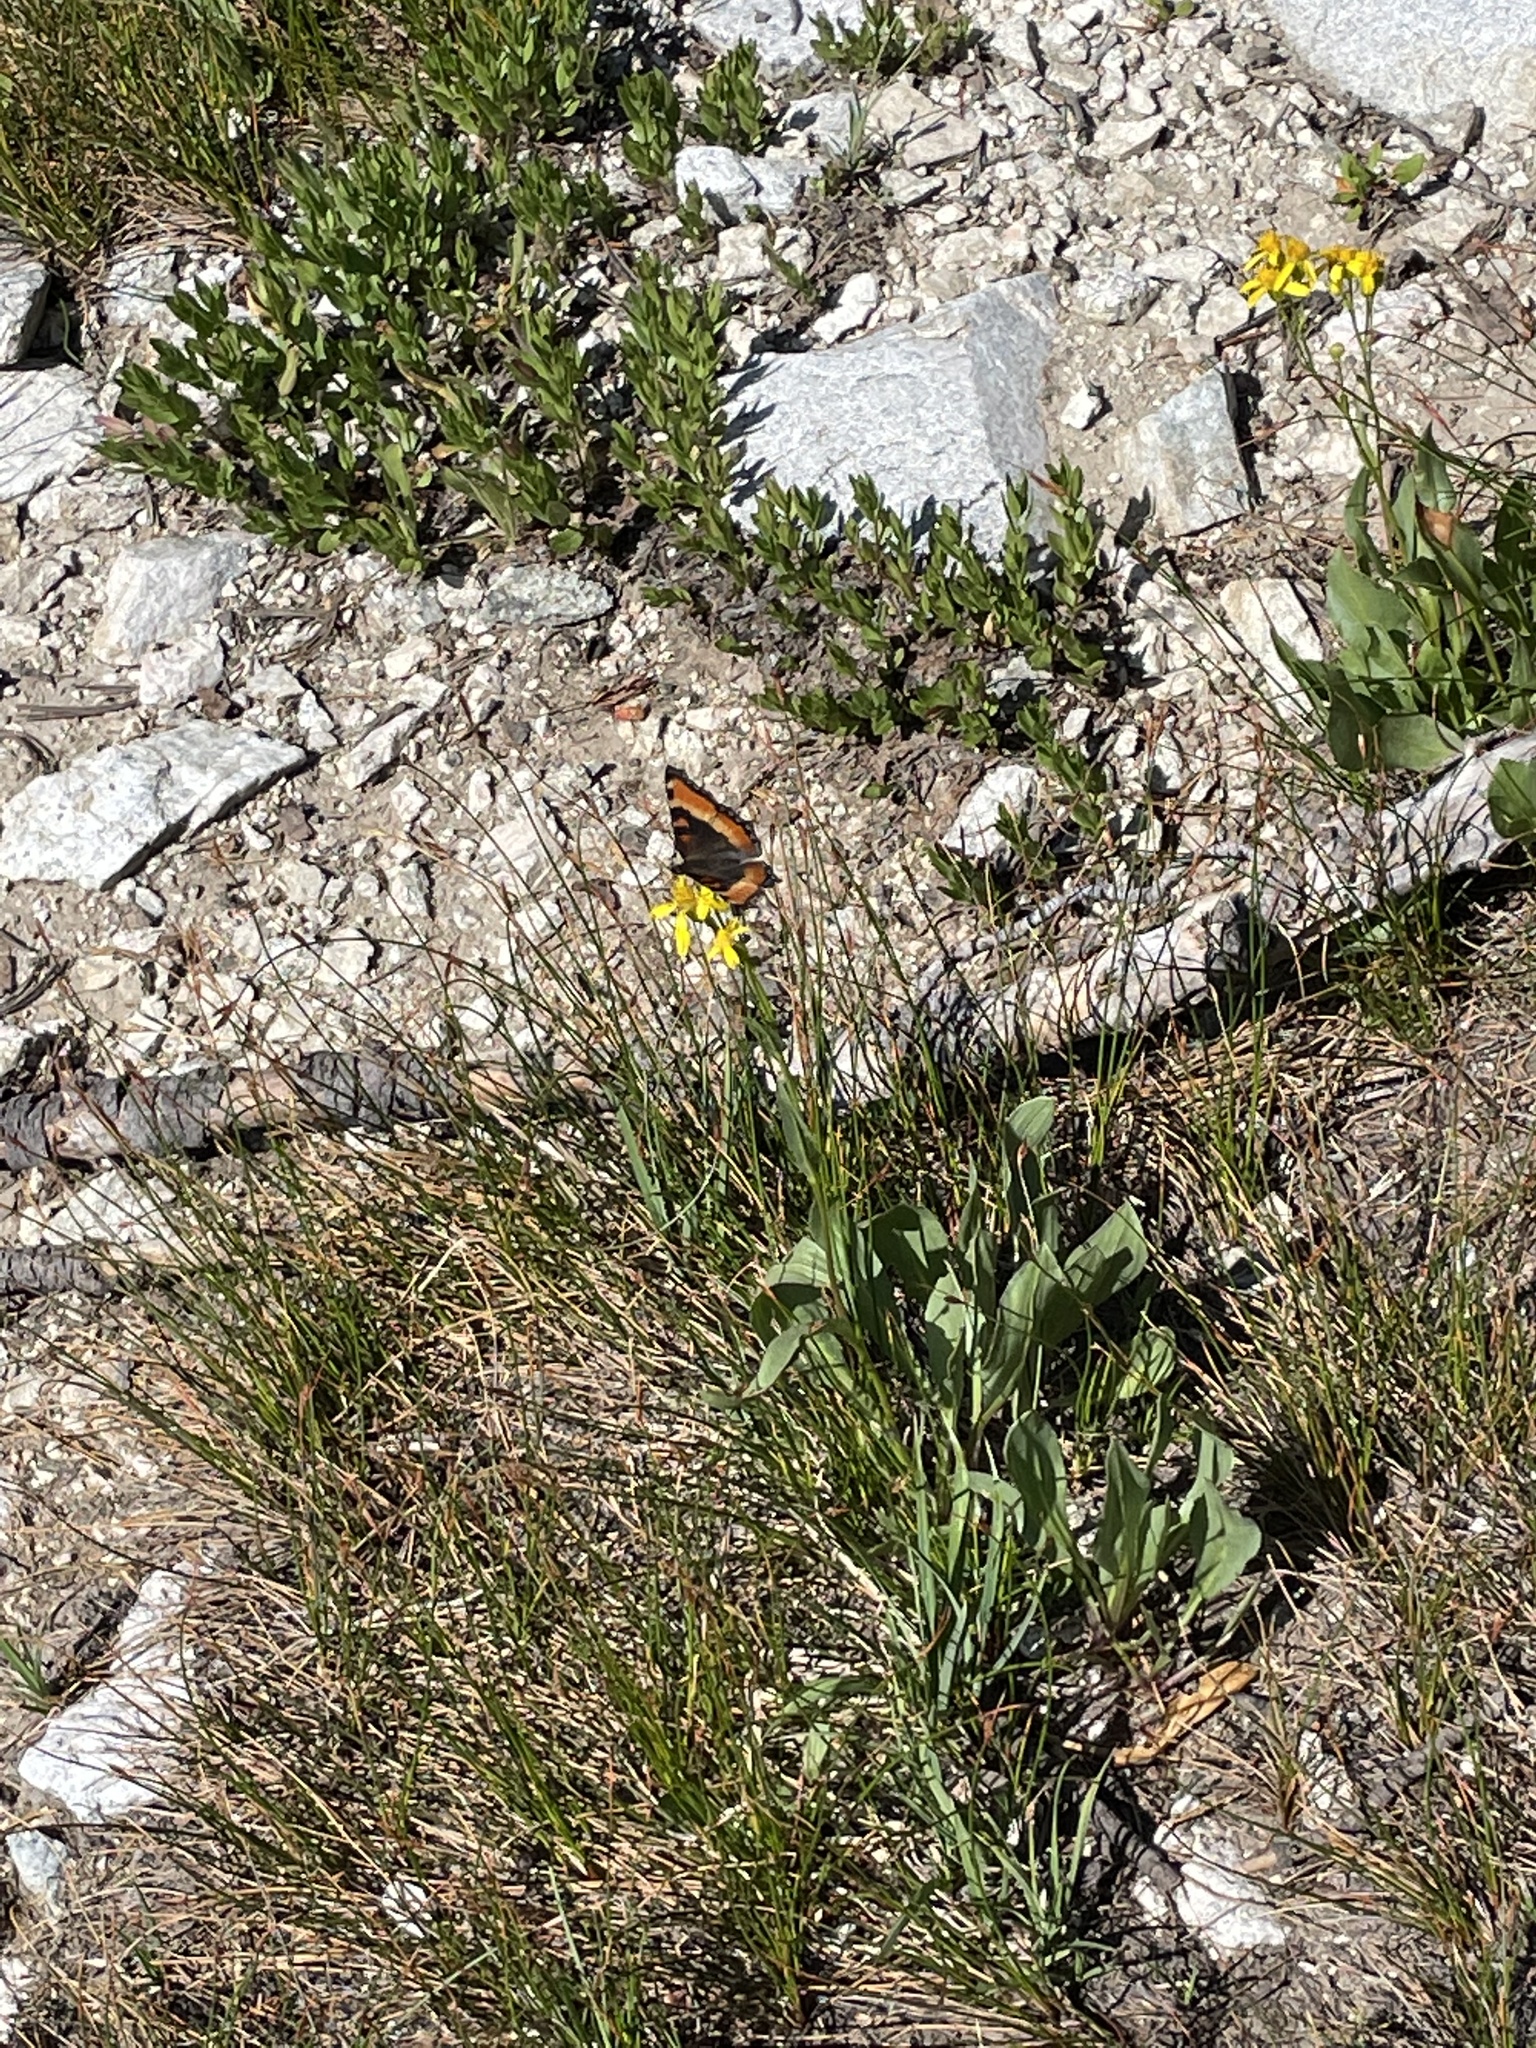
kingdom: Animalia
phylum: Arthropoda
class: Insecta
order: Lepidoptera
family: Nymphalidae
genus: Aglais
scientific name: Aglais milberti
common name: Milbert's tortoiseshell
